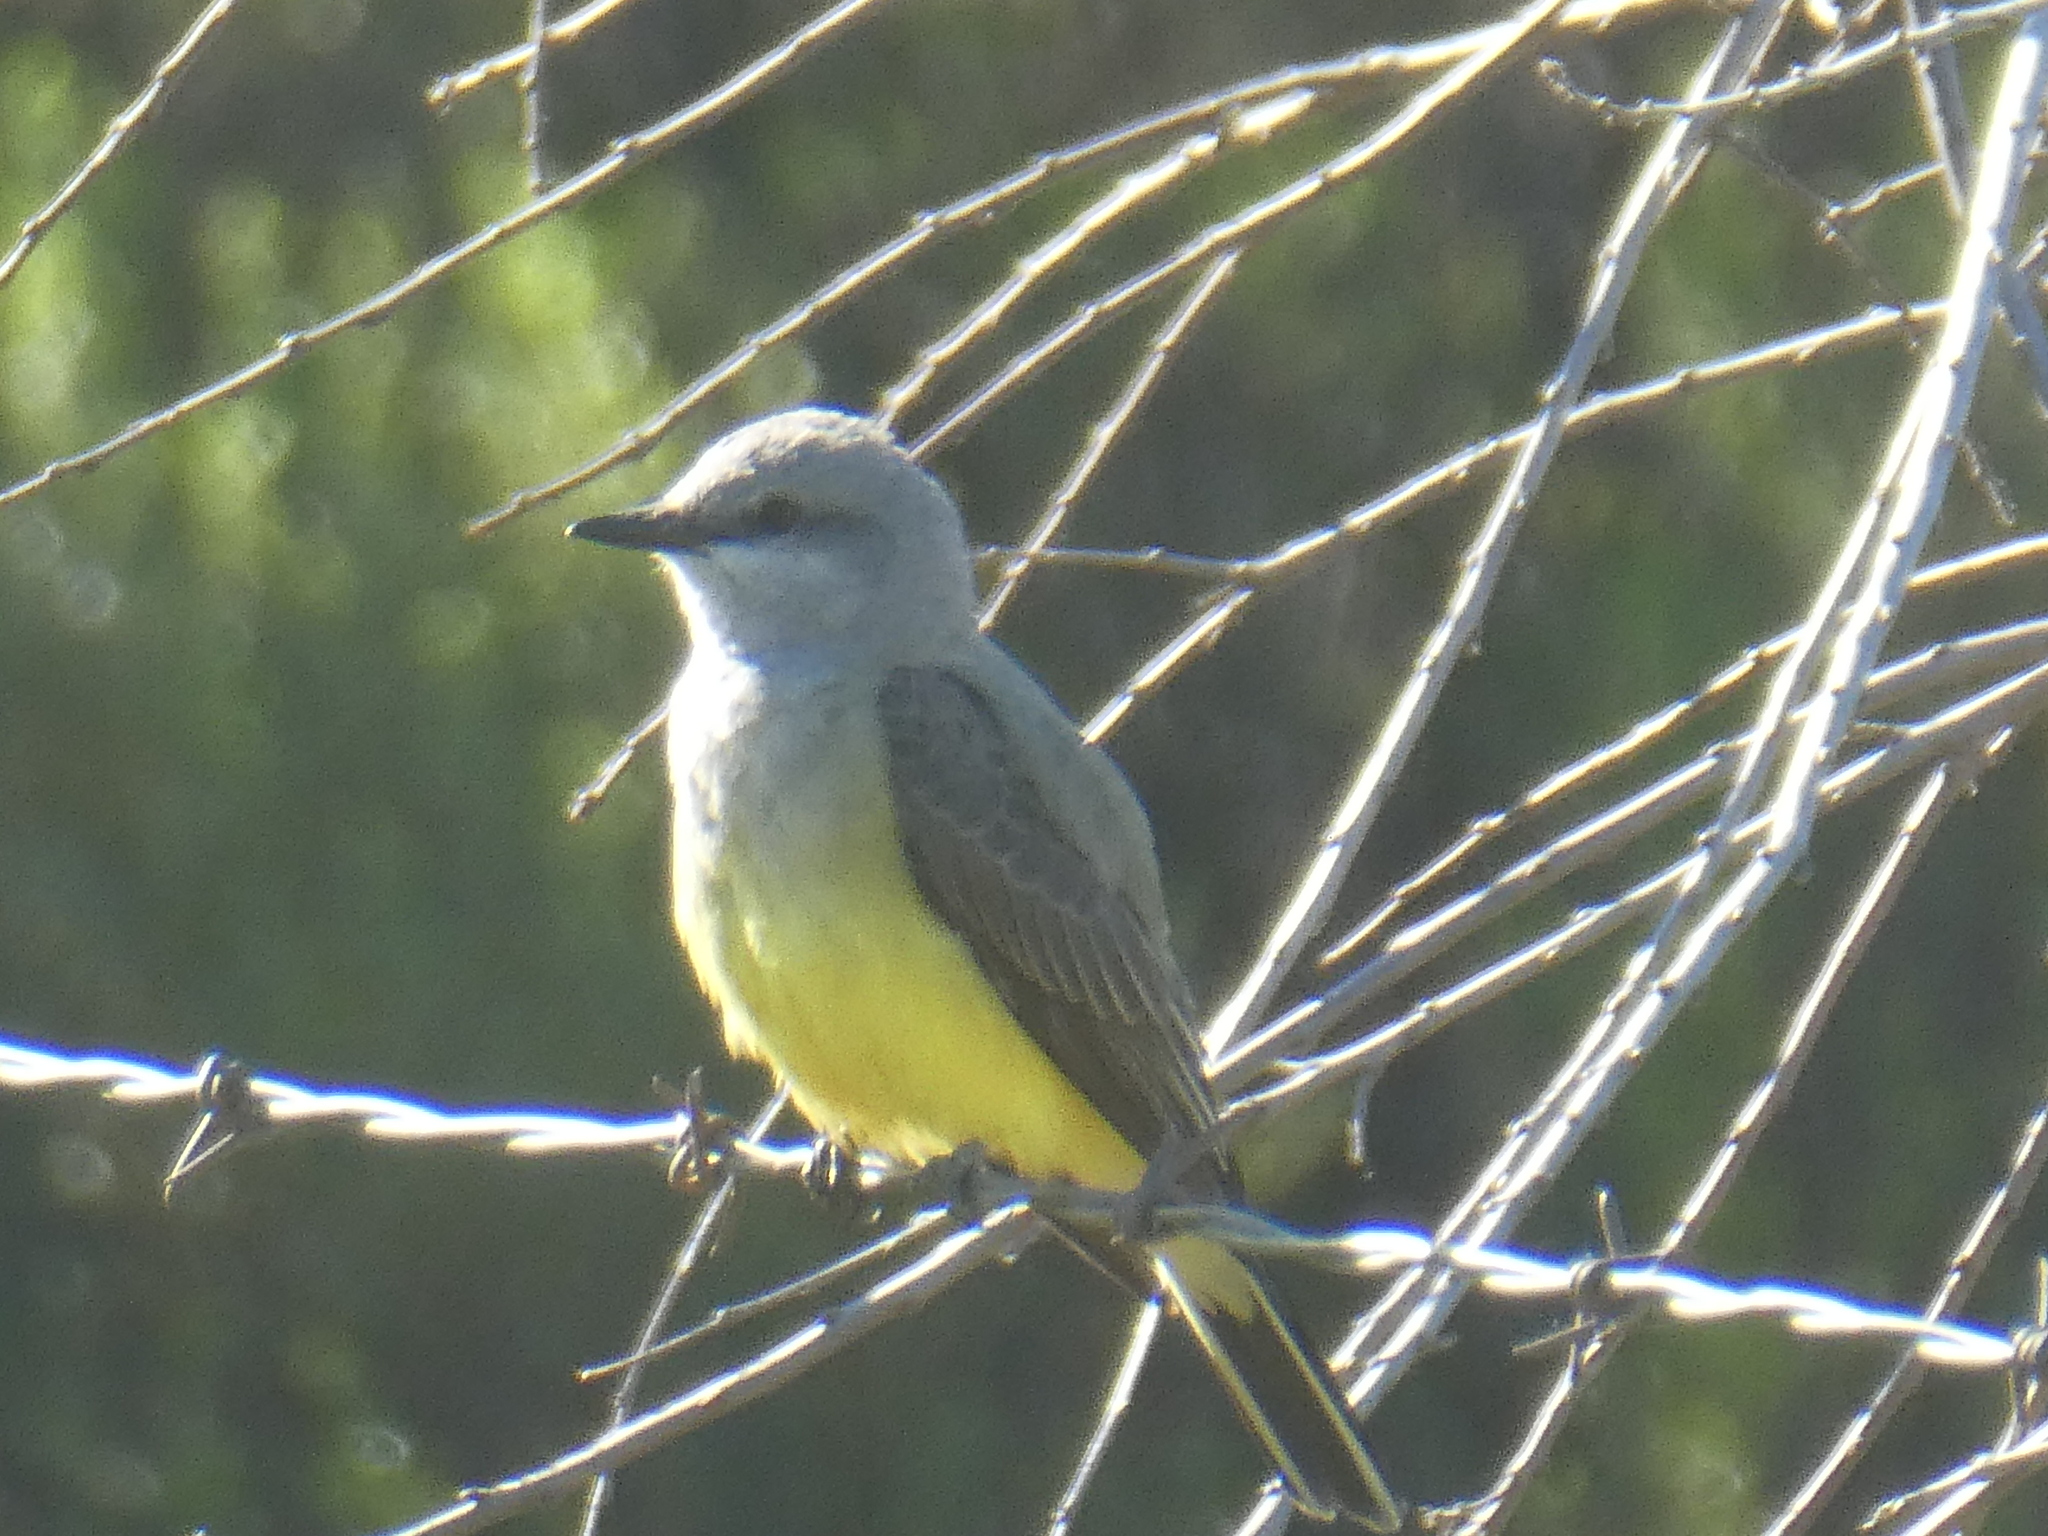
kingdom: Animalia
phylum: Chordata
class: Aves
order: Passeriformes
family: Tyrannidae
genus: Tyrannus
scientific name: Tyrannus verticalis
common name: Western kingbird
